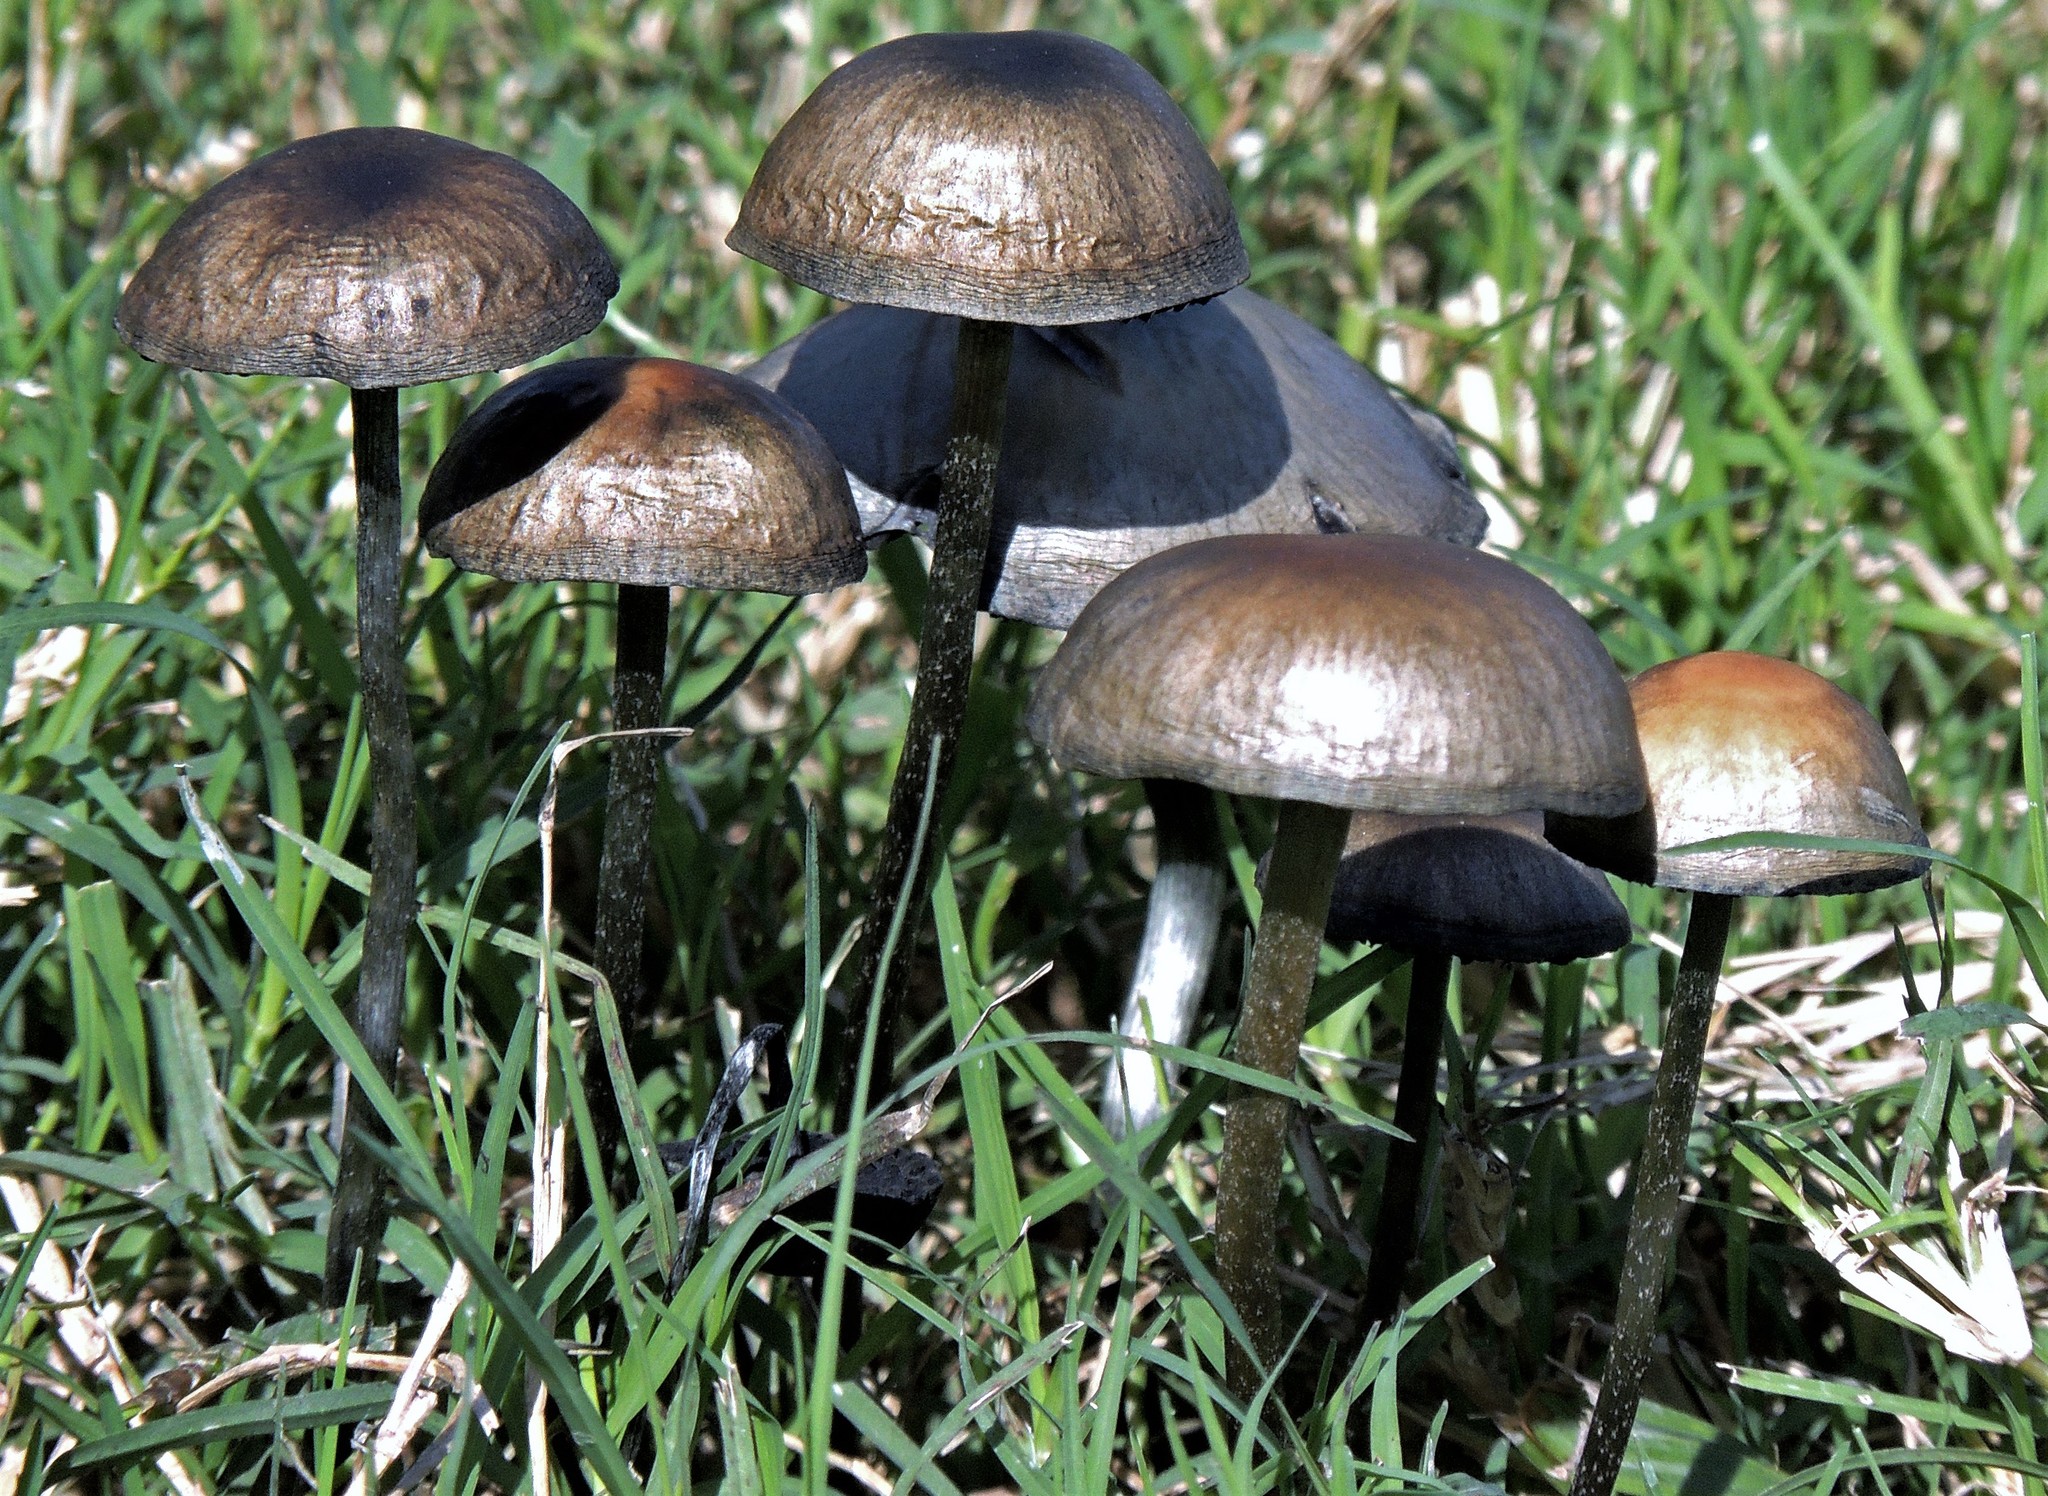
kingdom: Fungi
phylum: Basidiomycota
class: Agaricomycetes
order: Agaricales
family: Bolbitiaceae
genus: Panaeolus
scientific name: Panaeolus cyanescens
